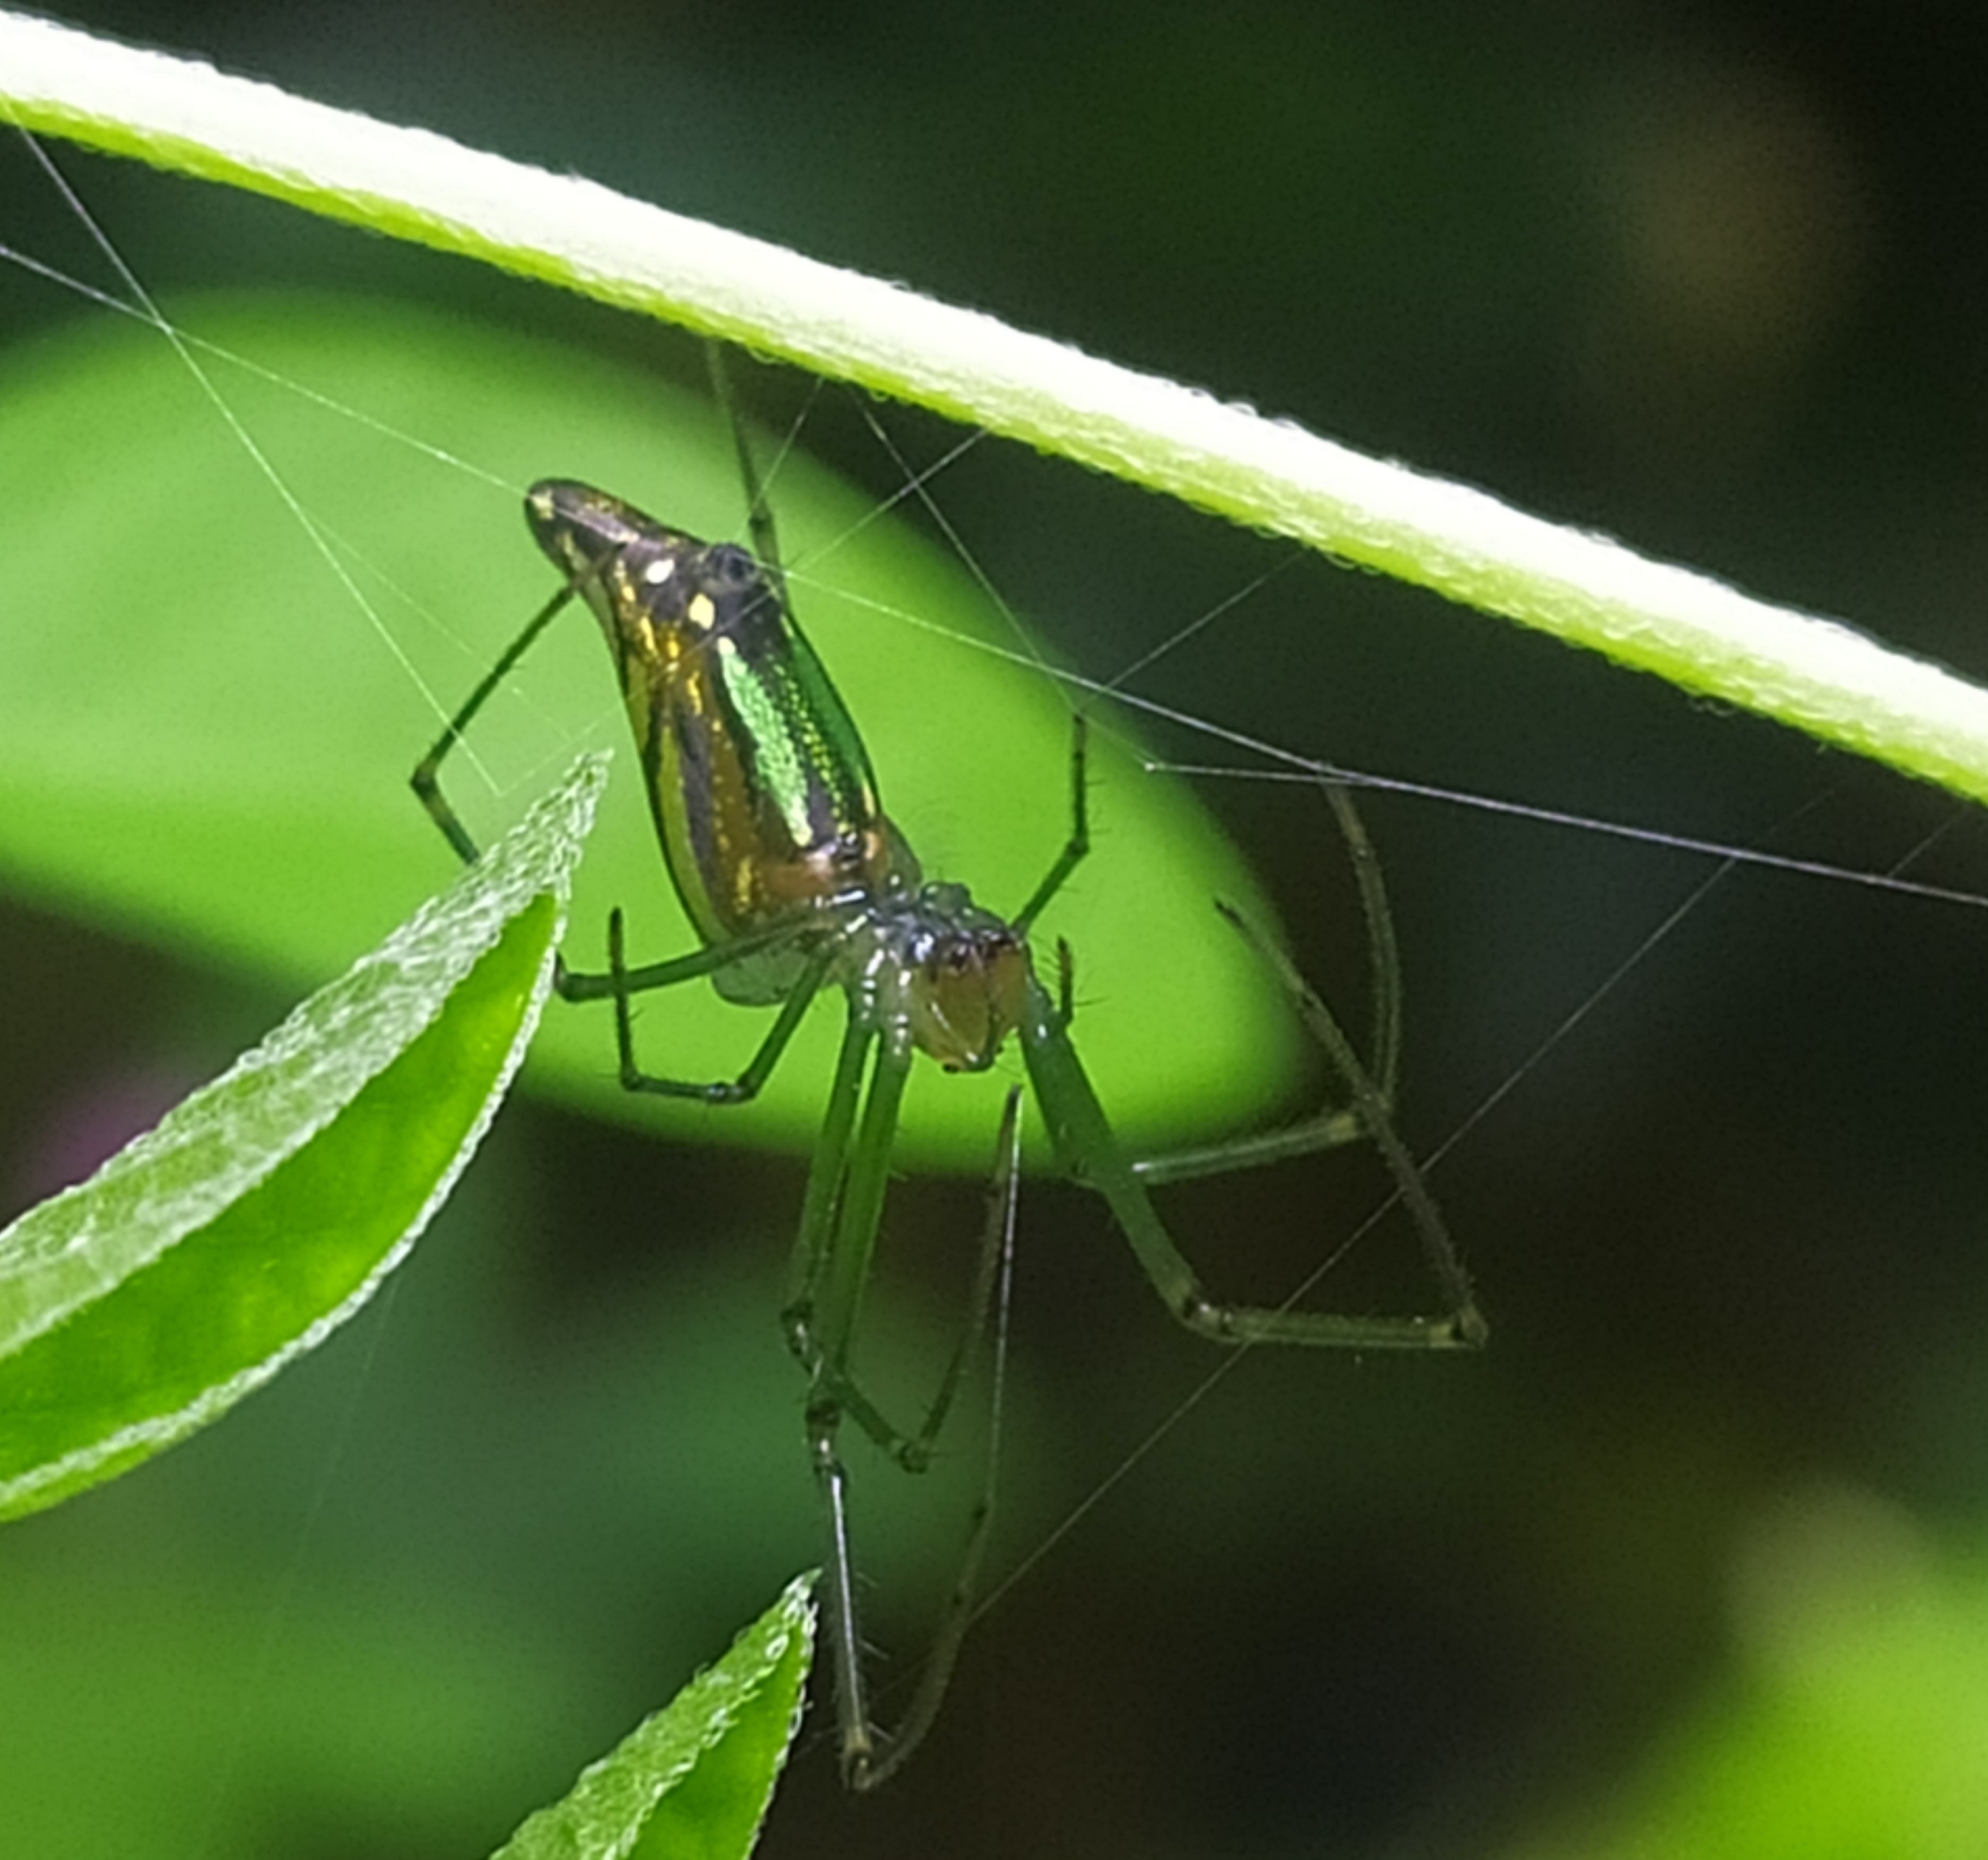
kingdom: Animalia
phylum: Arthropoda
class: Arachnida
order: Araneae
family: Tetragnathidae
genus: Leucauge
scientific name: Leucauge decorata
